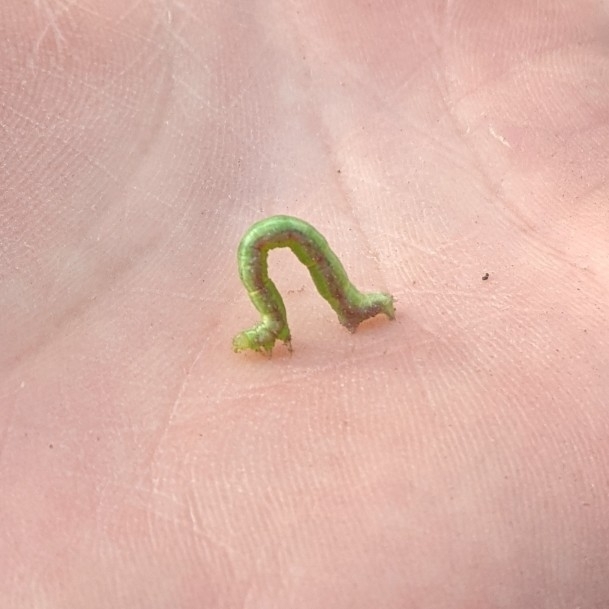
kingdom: Animalia
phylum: Arthropoda
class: Insecta
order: Lepidoptera
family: Geometridae
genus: Dysstroma
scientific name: Dysstroma truncata
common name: Common marbled carpet
